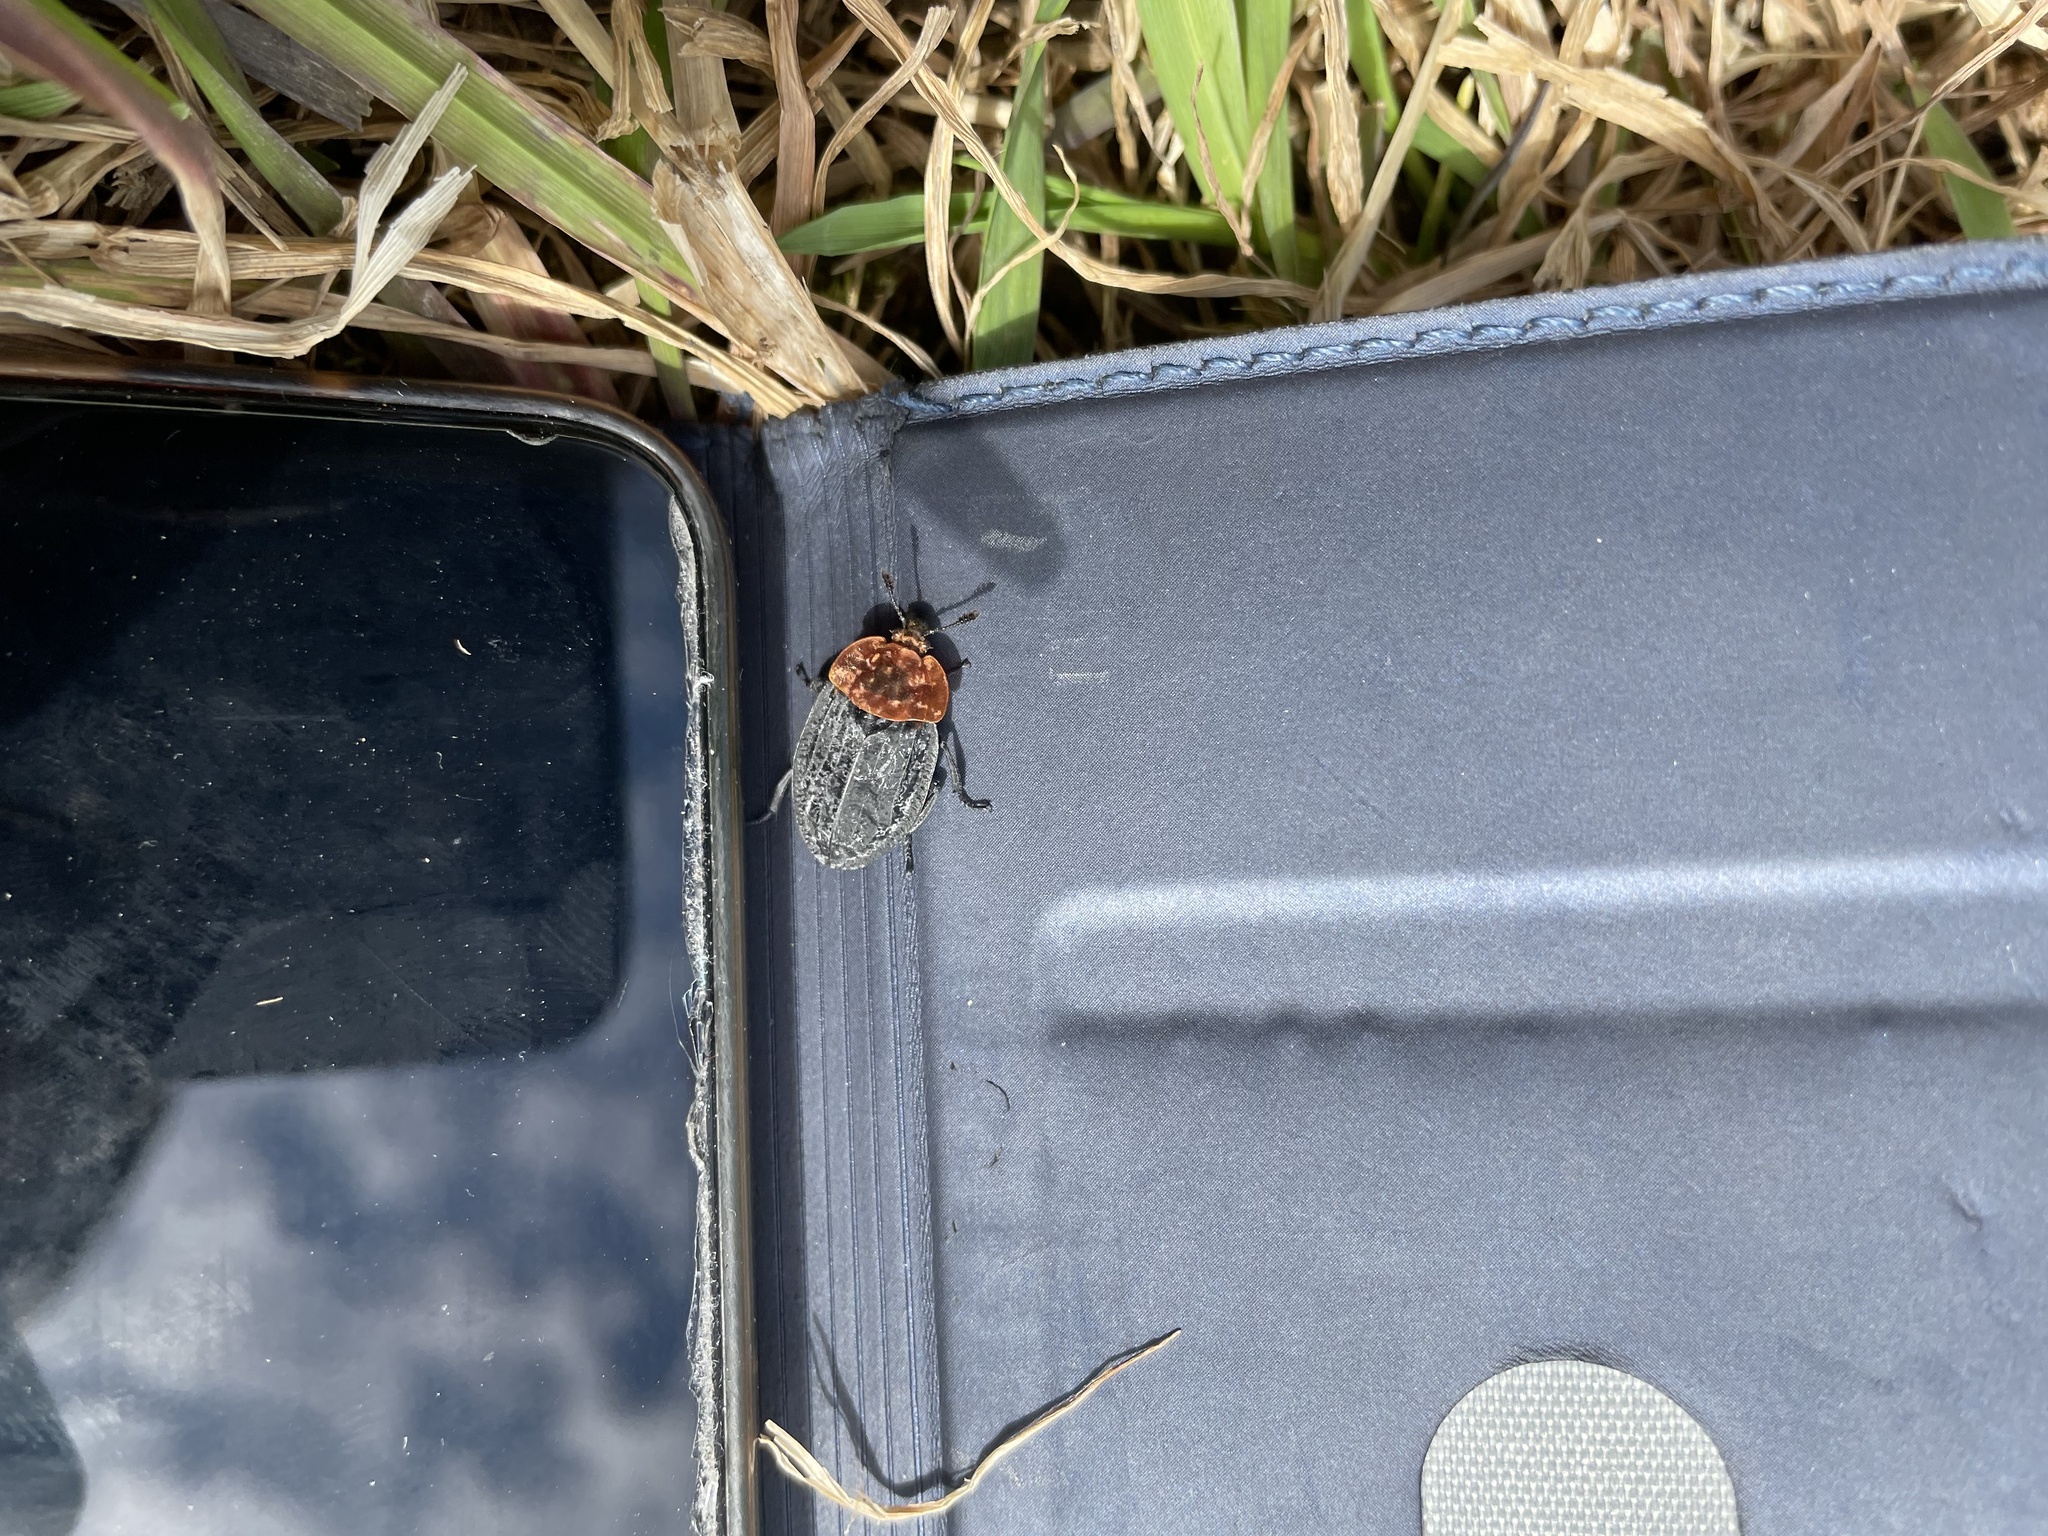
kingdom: Animalia
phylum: Arthropoda
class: Insecta
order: Coleoptera
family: Staphylinidae
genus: Oiceoptoma
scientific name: Oiceoptoma thoracicum
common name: Red-breasted carrion beetle
